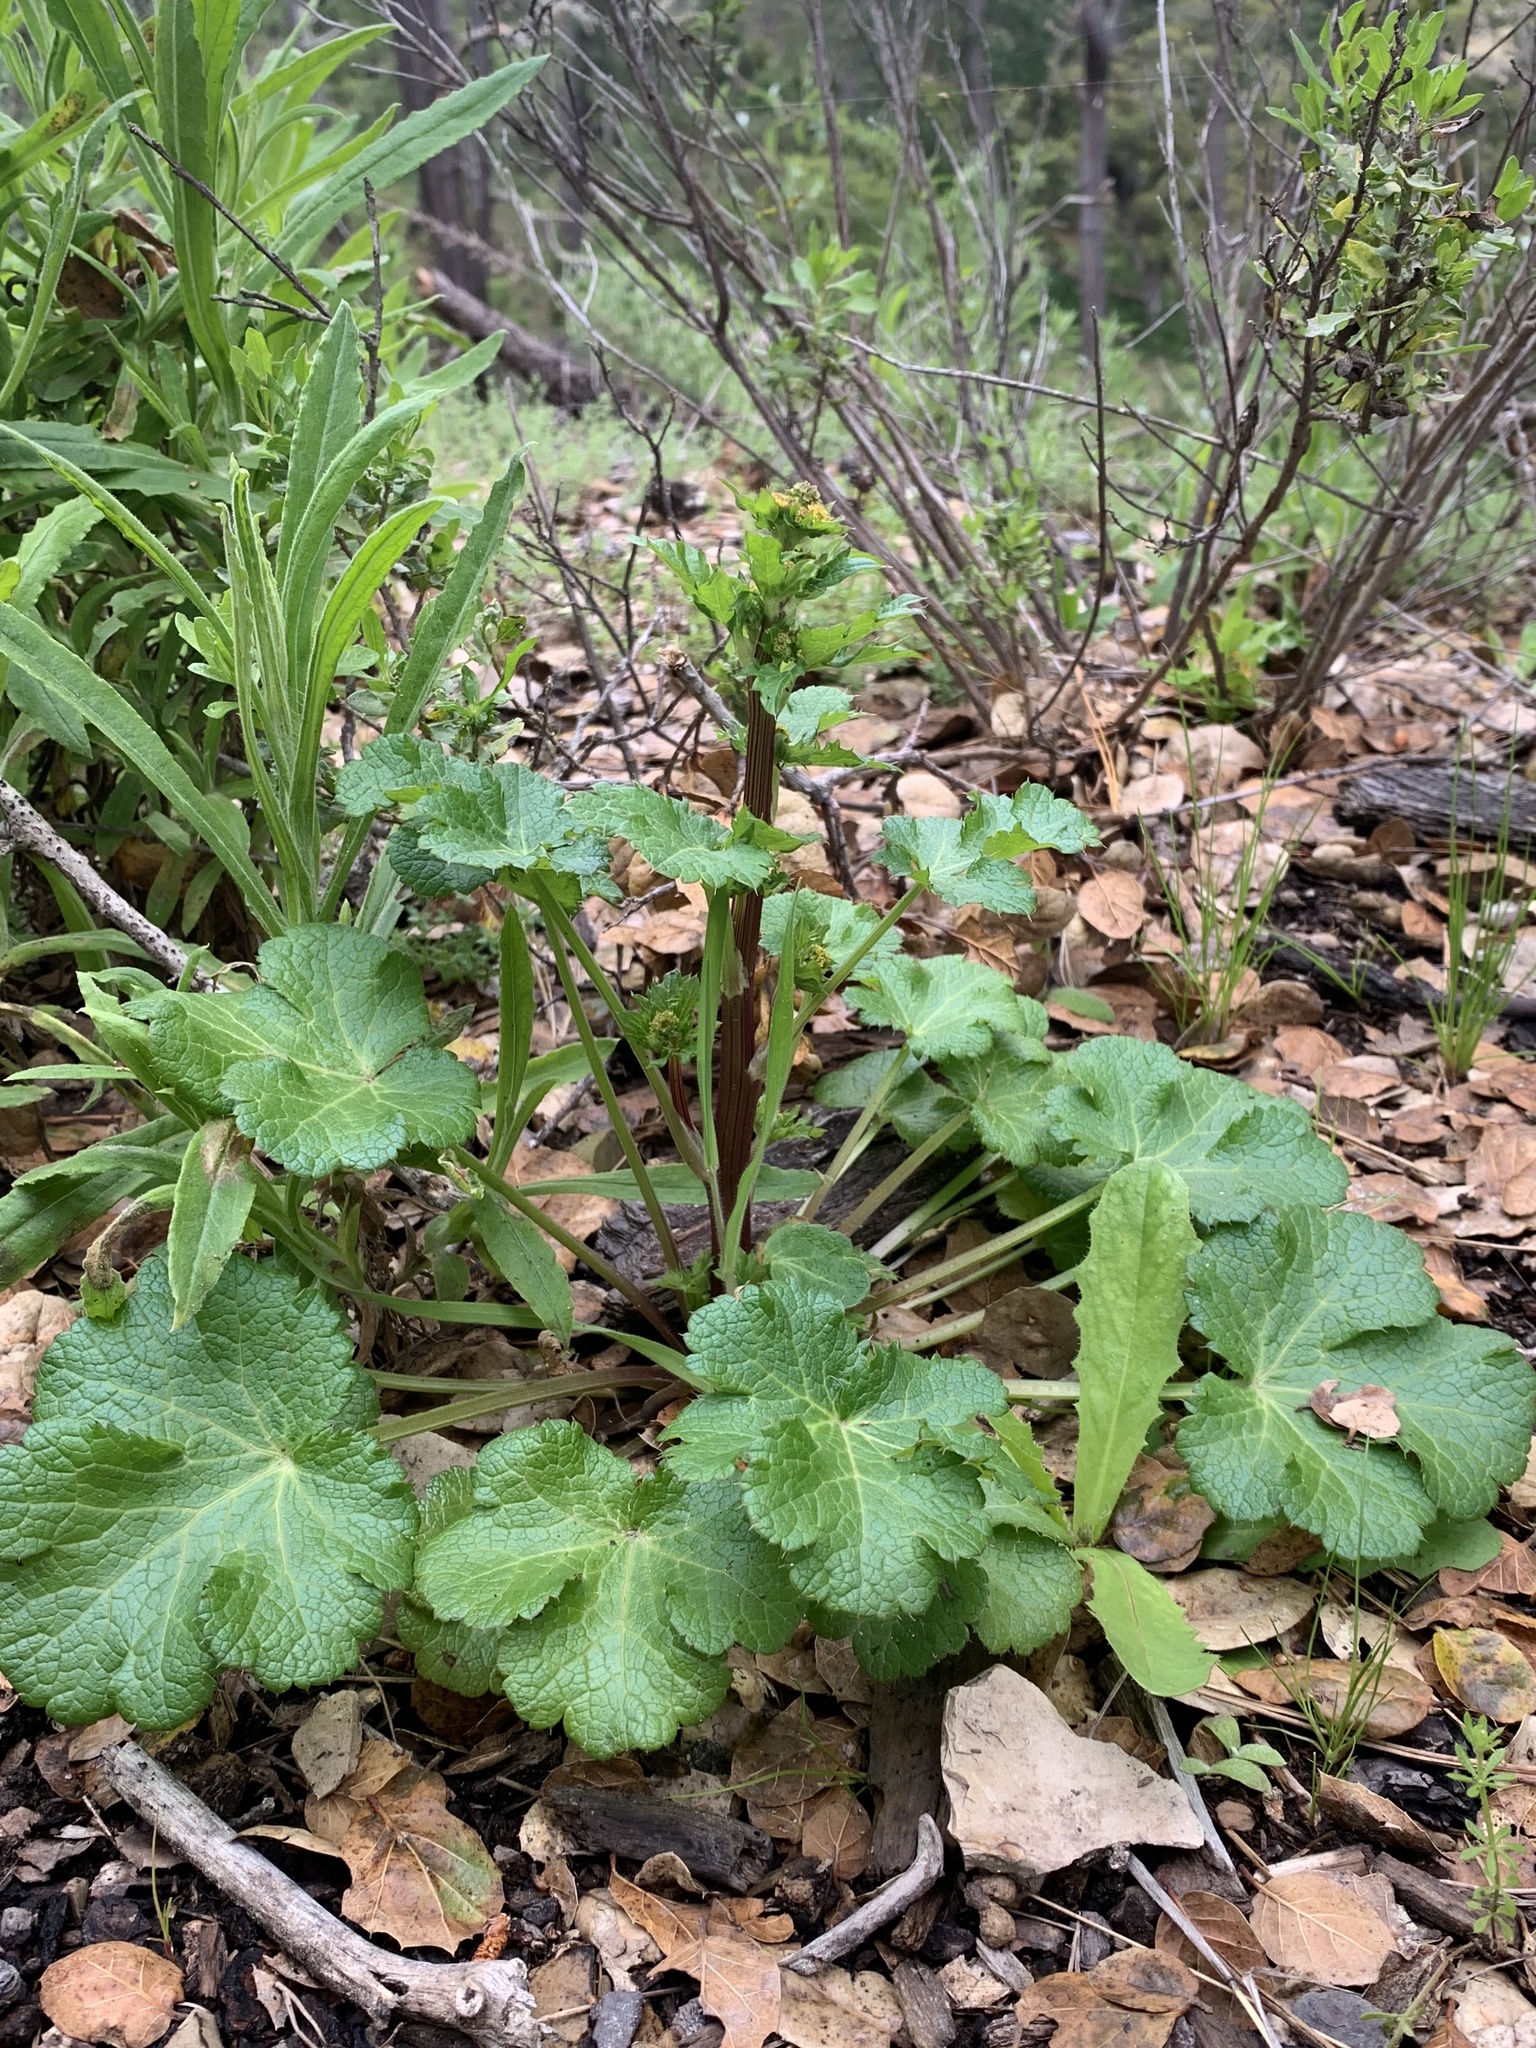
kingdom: Plantae
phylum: Tracheophyta
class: Magnoliopsida
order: Apiales
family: Apiaceae
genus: Sanicula
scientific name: Sanicula crassicaulis
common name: Western snakeroot
